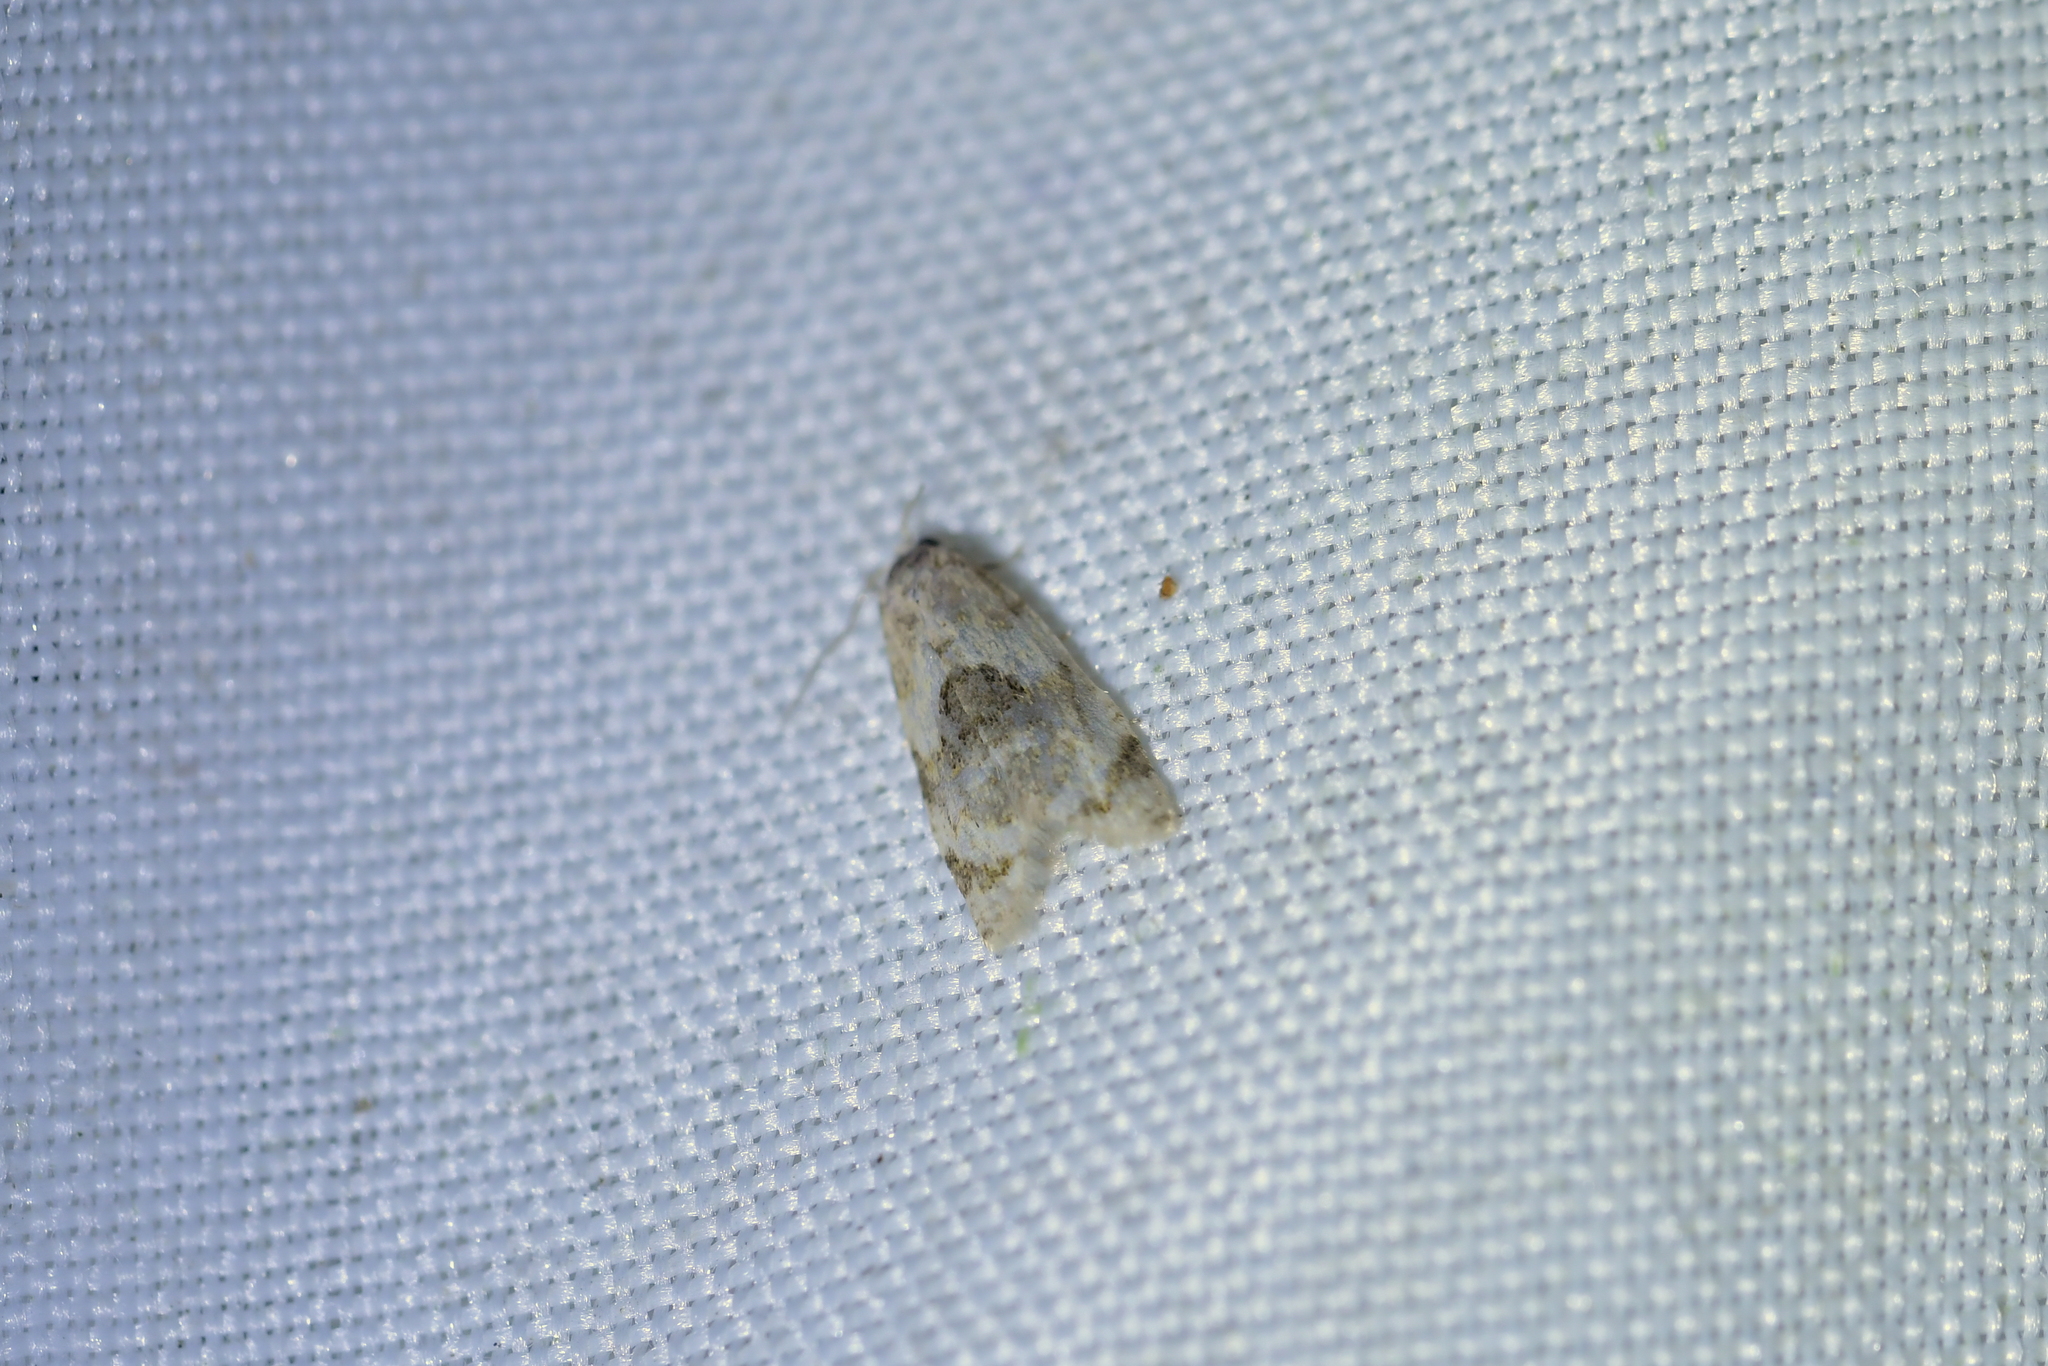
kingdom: Animalia
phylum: Arthropoda
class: Insecta
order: Lepidoptera
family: Tortricidae
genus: Dipterina
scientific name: Dipterina imbriferana
